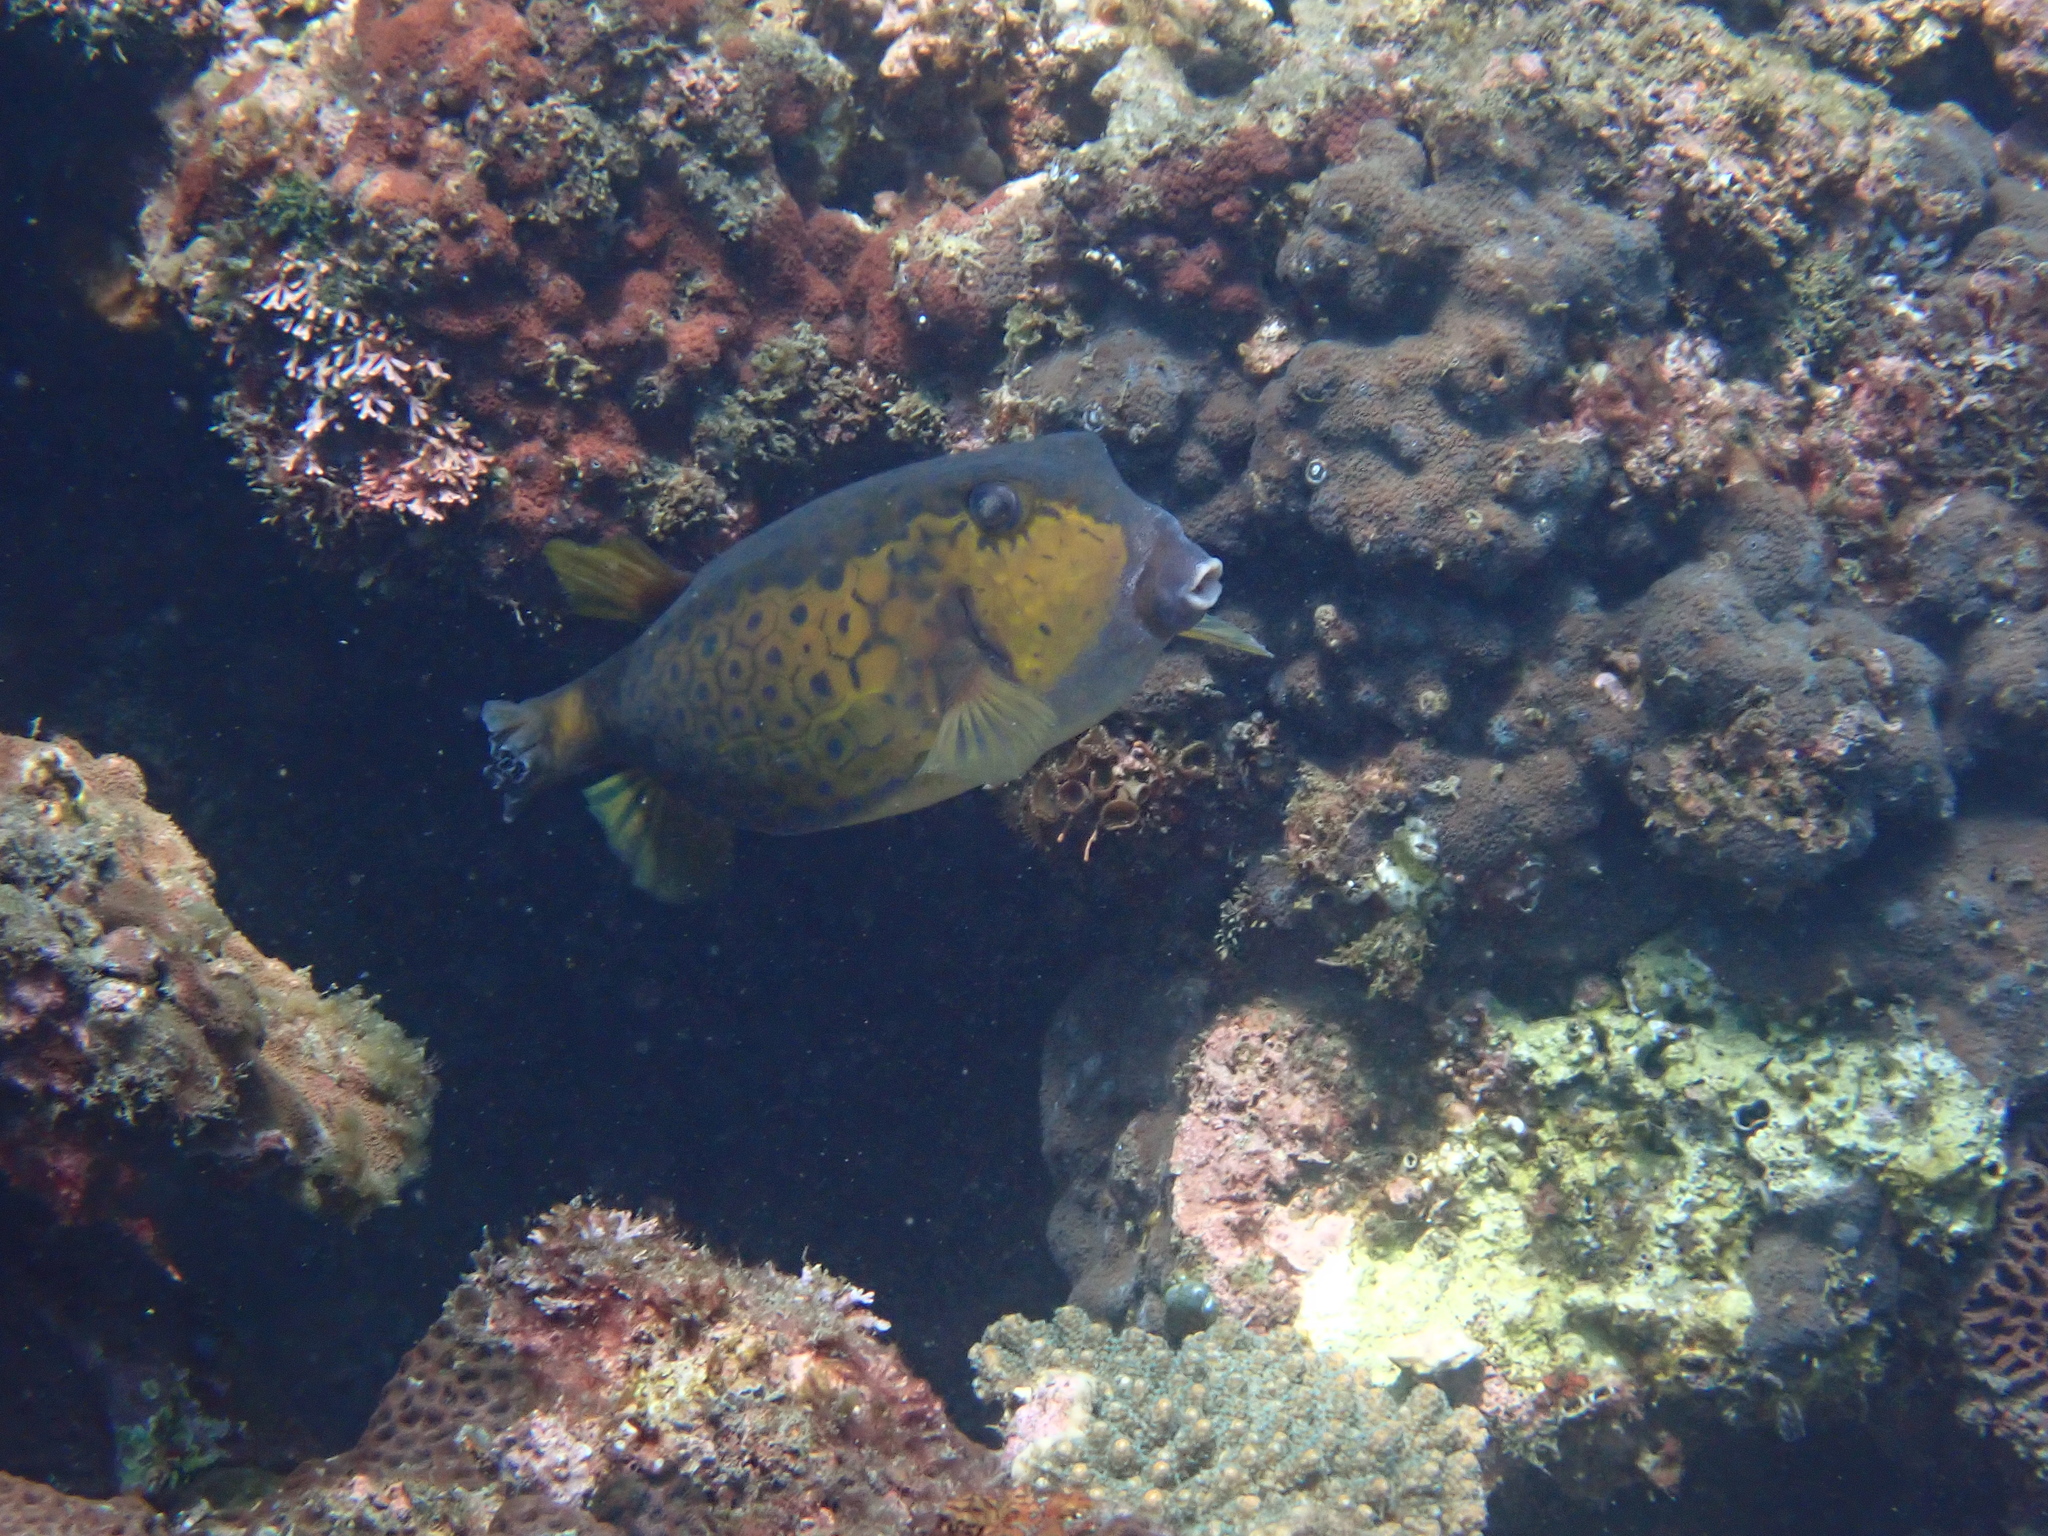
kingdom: Animalia
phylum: Chordata
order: Tetraodontiformes
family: Ostraciidae
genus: Ostracion
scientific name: Ostracion immaculatus
